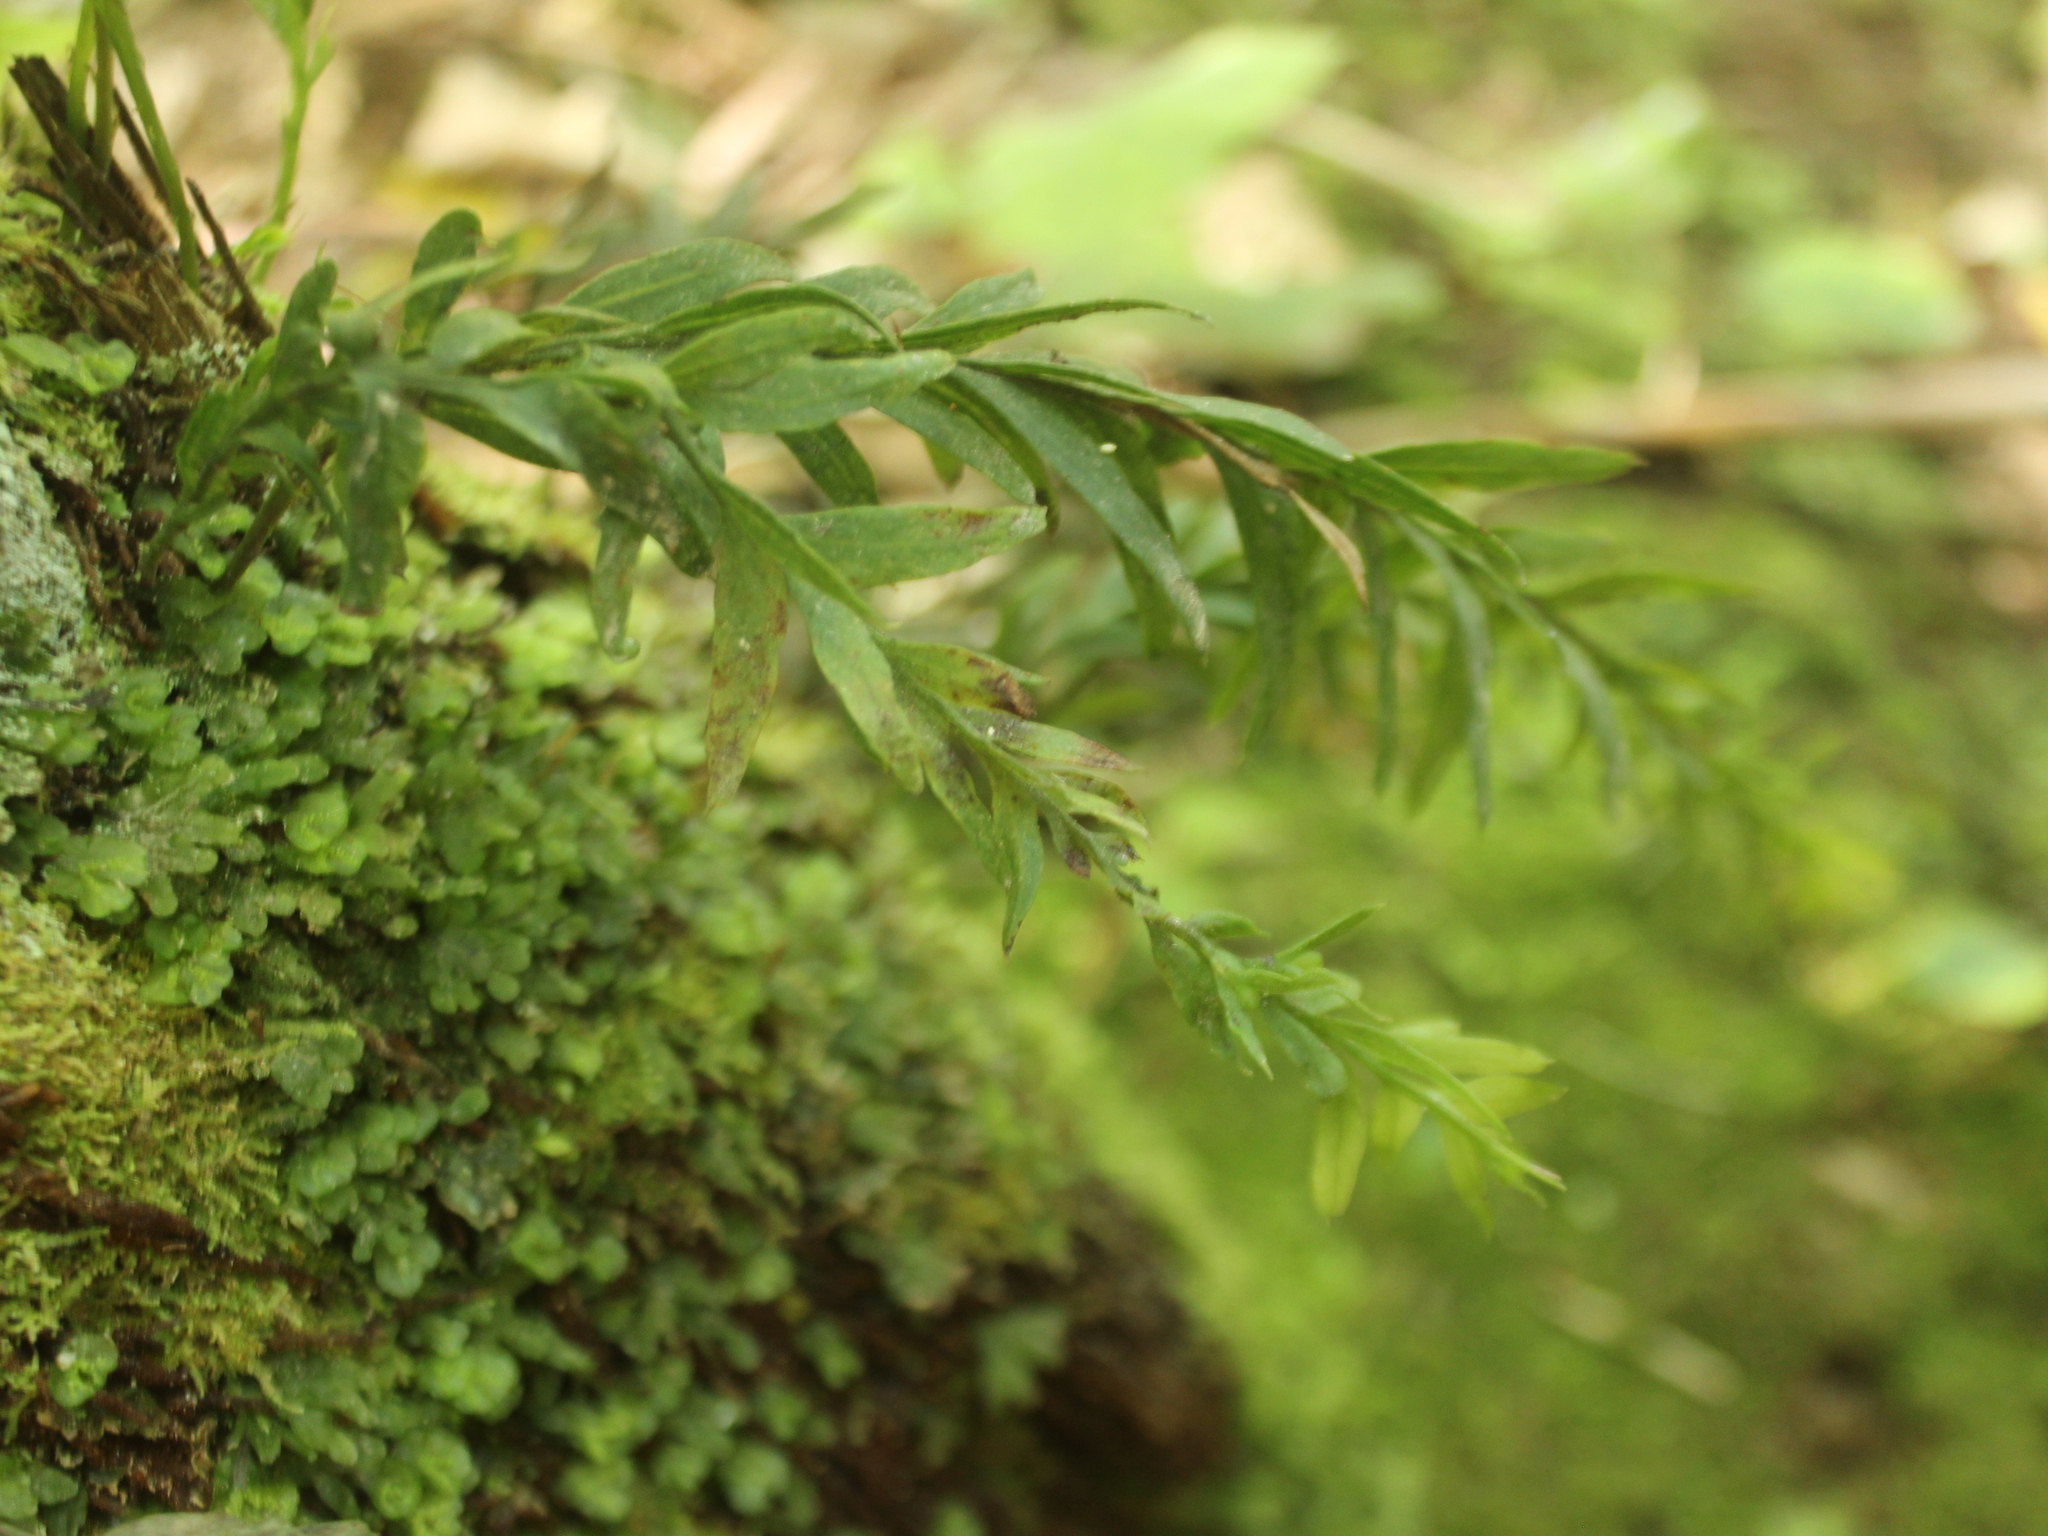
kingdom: Plantae
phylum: Tracheophyta
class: Polypodiopsida
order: Psilotales
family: Psilotaceae
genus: Tmesipteris
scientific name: Tmesipteris elongata
